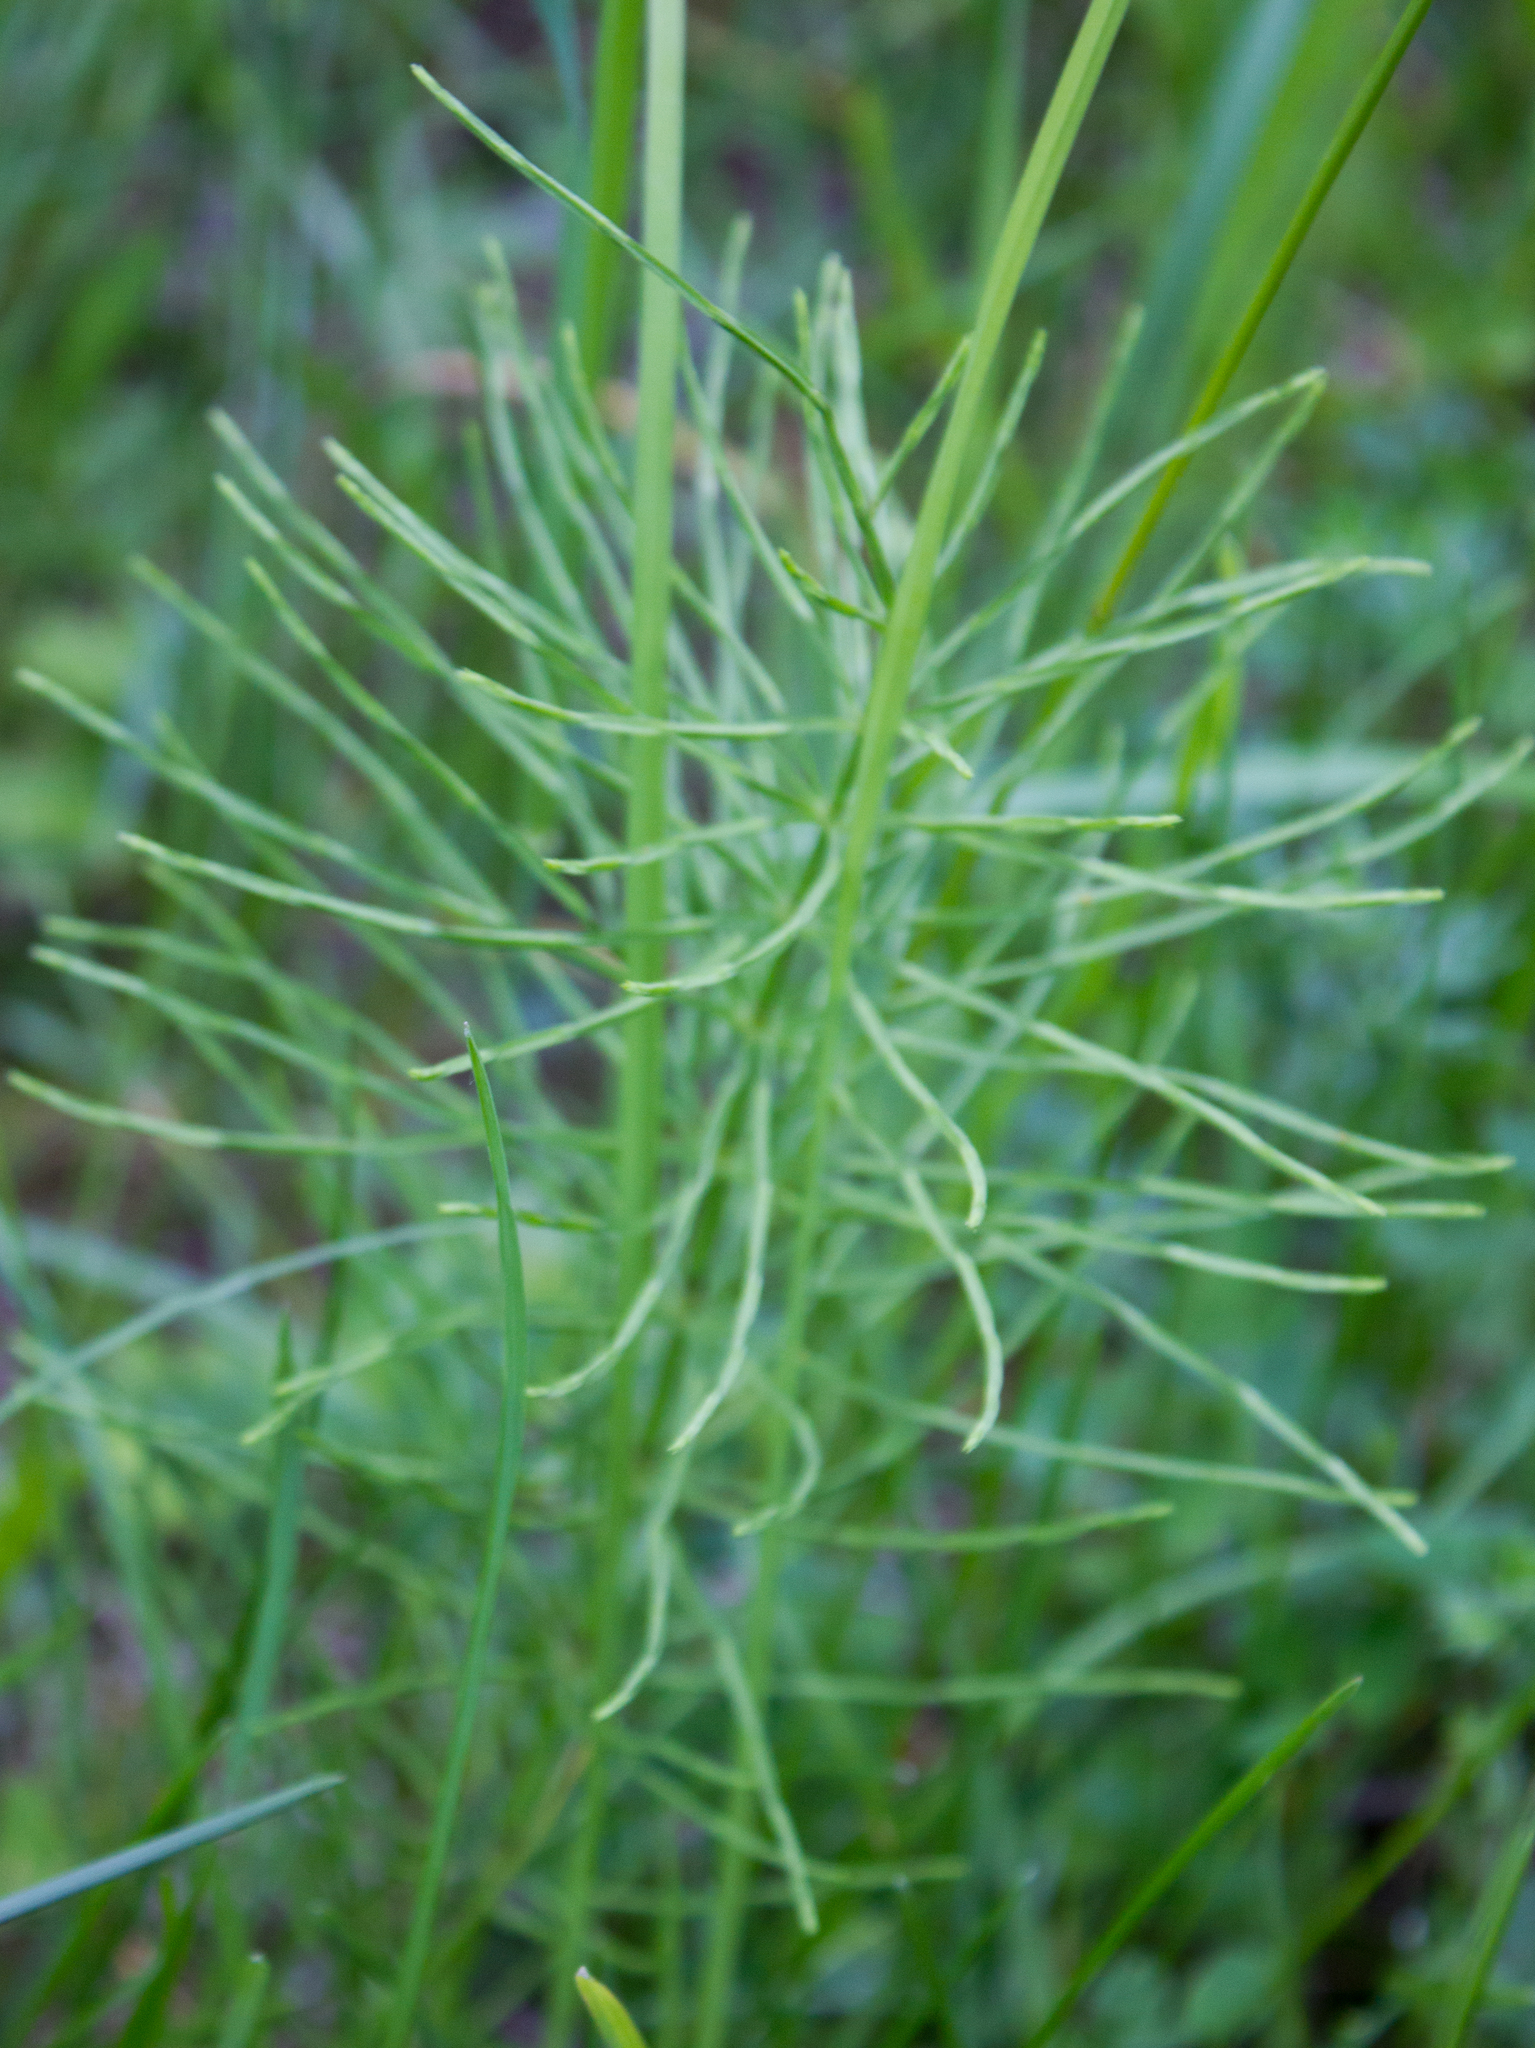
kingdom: Plantae
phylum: Tracheophyta
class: Polypodiopsida
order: Equisetales
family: Equisetaceae
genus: Equisetum
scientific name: Equisetum arvense
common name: Field horsetail
